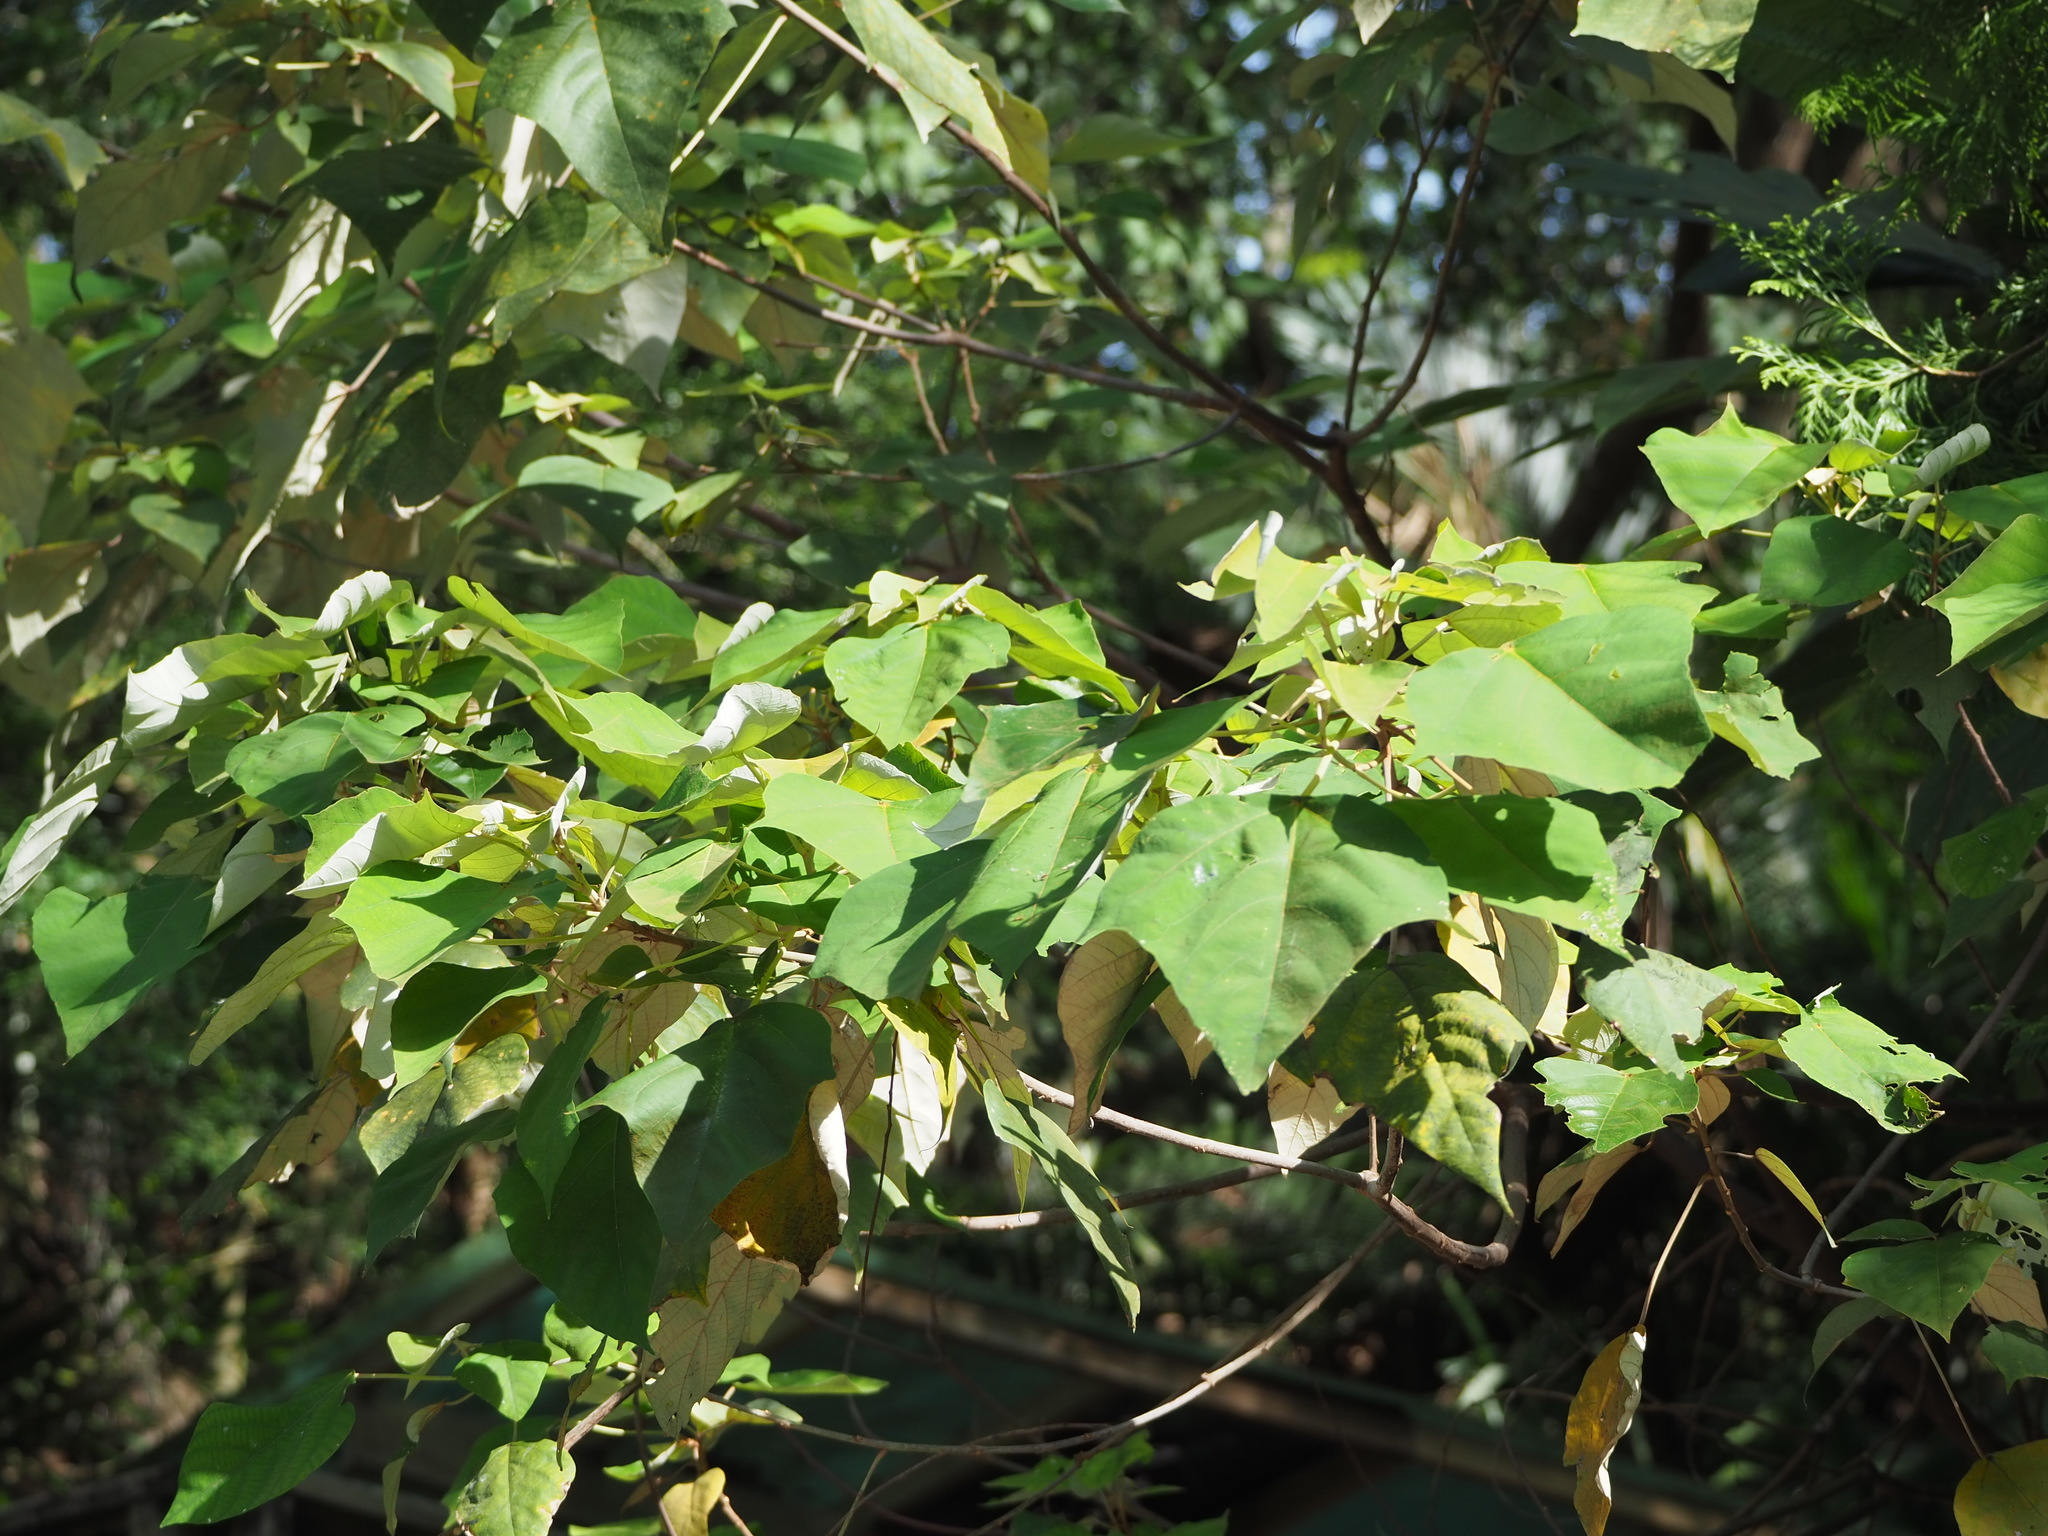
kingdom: Plantae
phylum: Tracheophyta
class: Magnoliopsida
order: Malpighiales
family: Euphorbiaceae
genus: Mallotus
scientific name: Mallotus paniculatus
